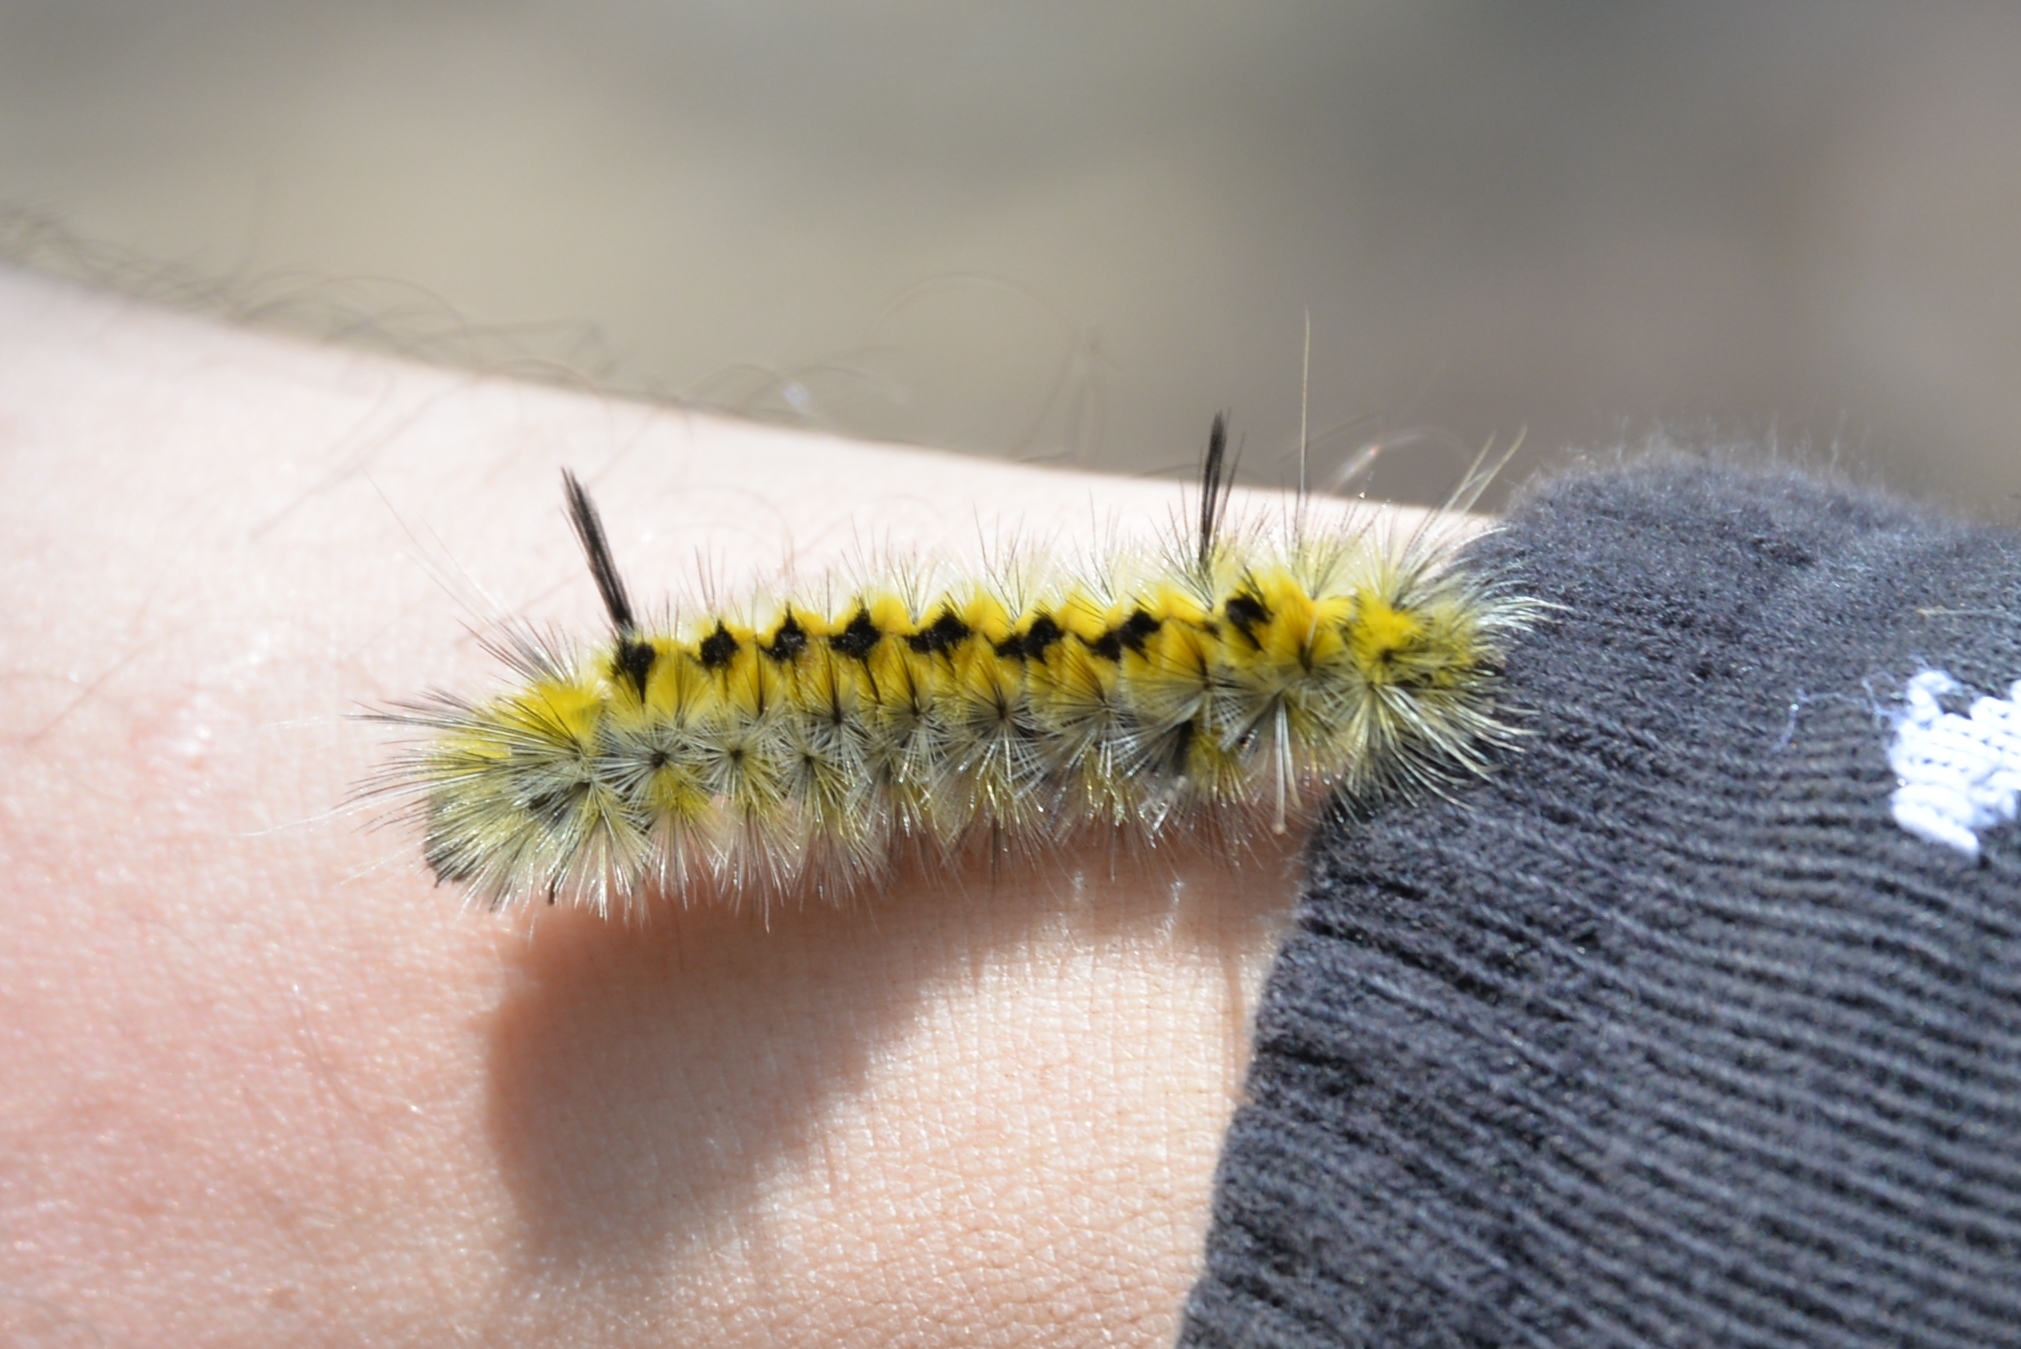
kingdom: Animalia
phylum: Arthropoda
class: Insecta
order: Lepidoptera
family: Erebidae
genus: Lophocampa
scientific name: Lophocampa indistincta
